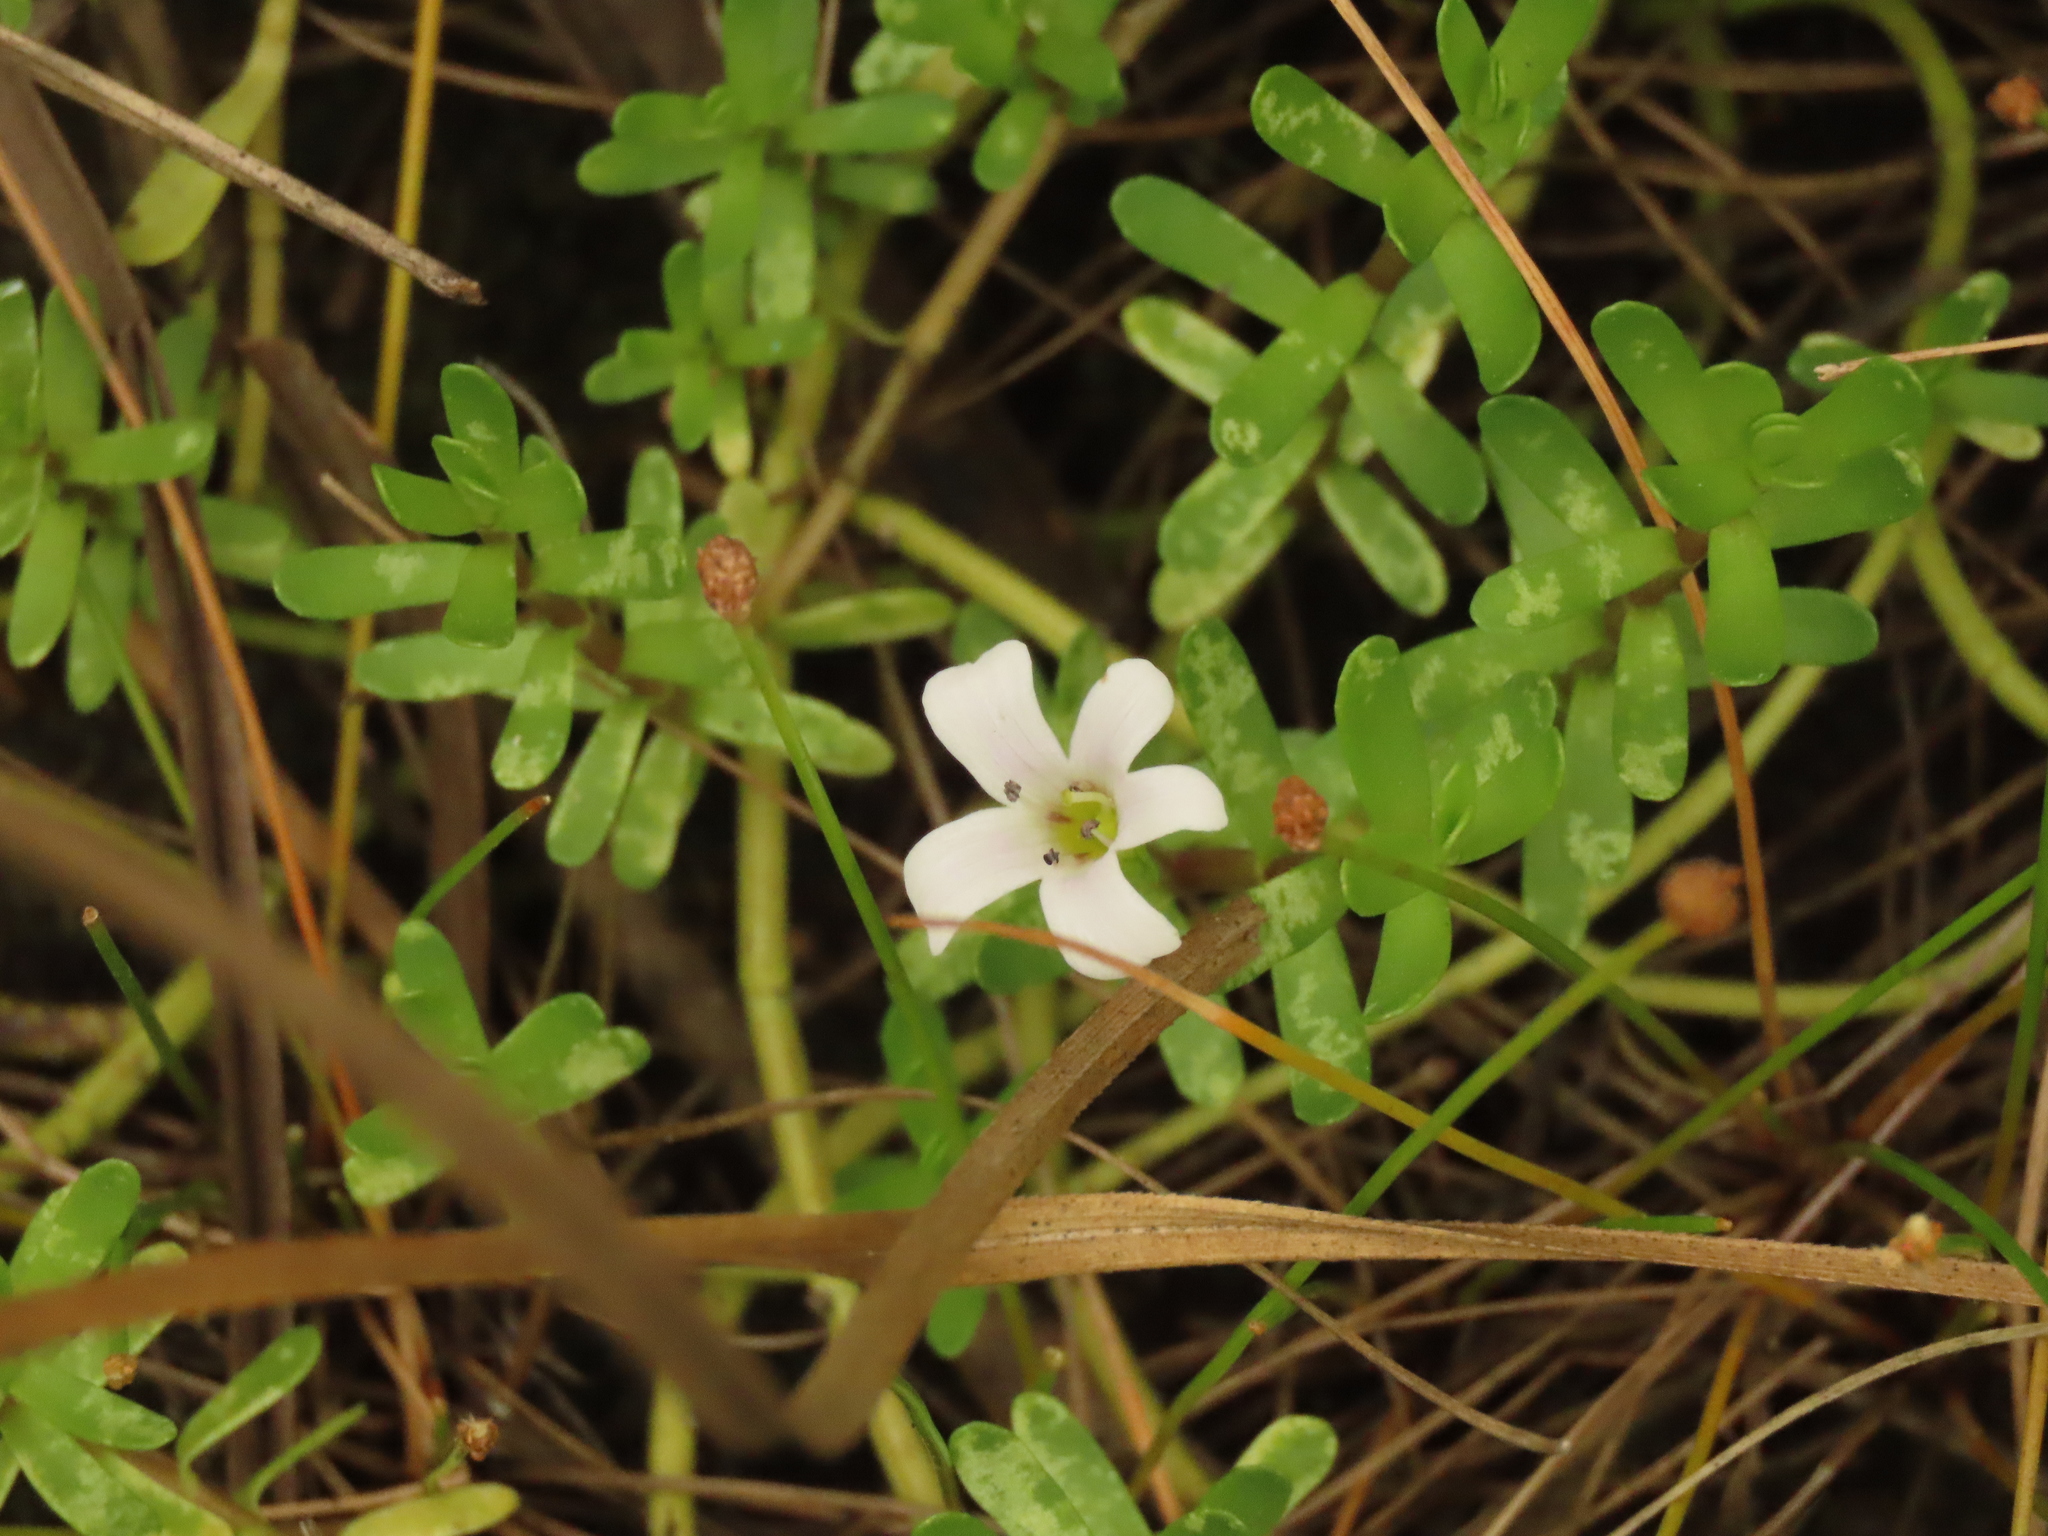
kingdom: Plantae
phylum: Tracheophyta
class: Magnoliopsida
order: Lamiales
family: Plantaginaceae
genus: Bacopa
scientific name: Bacopa monnieri
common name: Indian-pennywort
